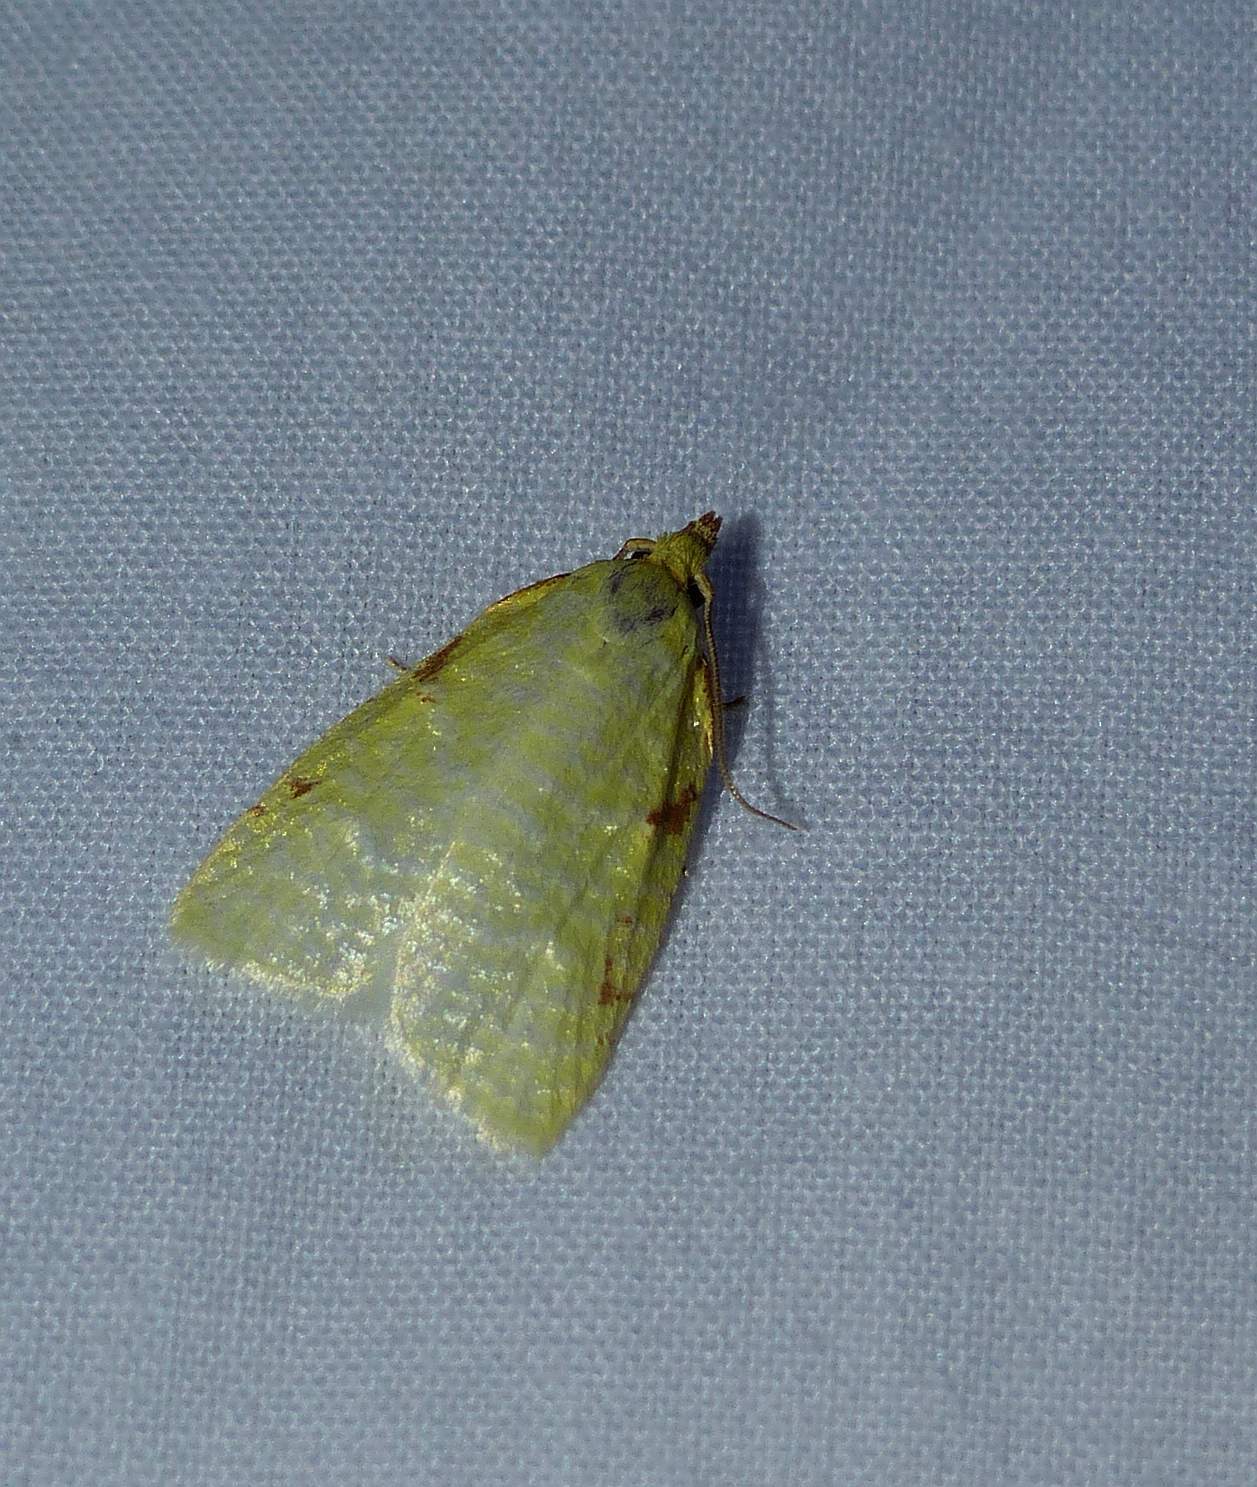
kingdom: Animalia
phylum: Arthropoda
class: Insecta
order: Lepidoptera
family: Tortricidae
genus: Cenopis
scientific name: Cenopis pettitana
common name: Maple-basswood leafroller moth
